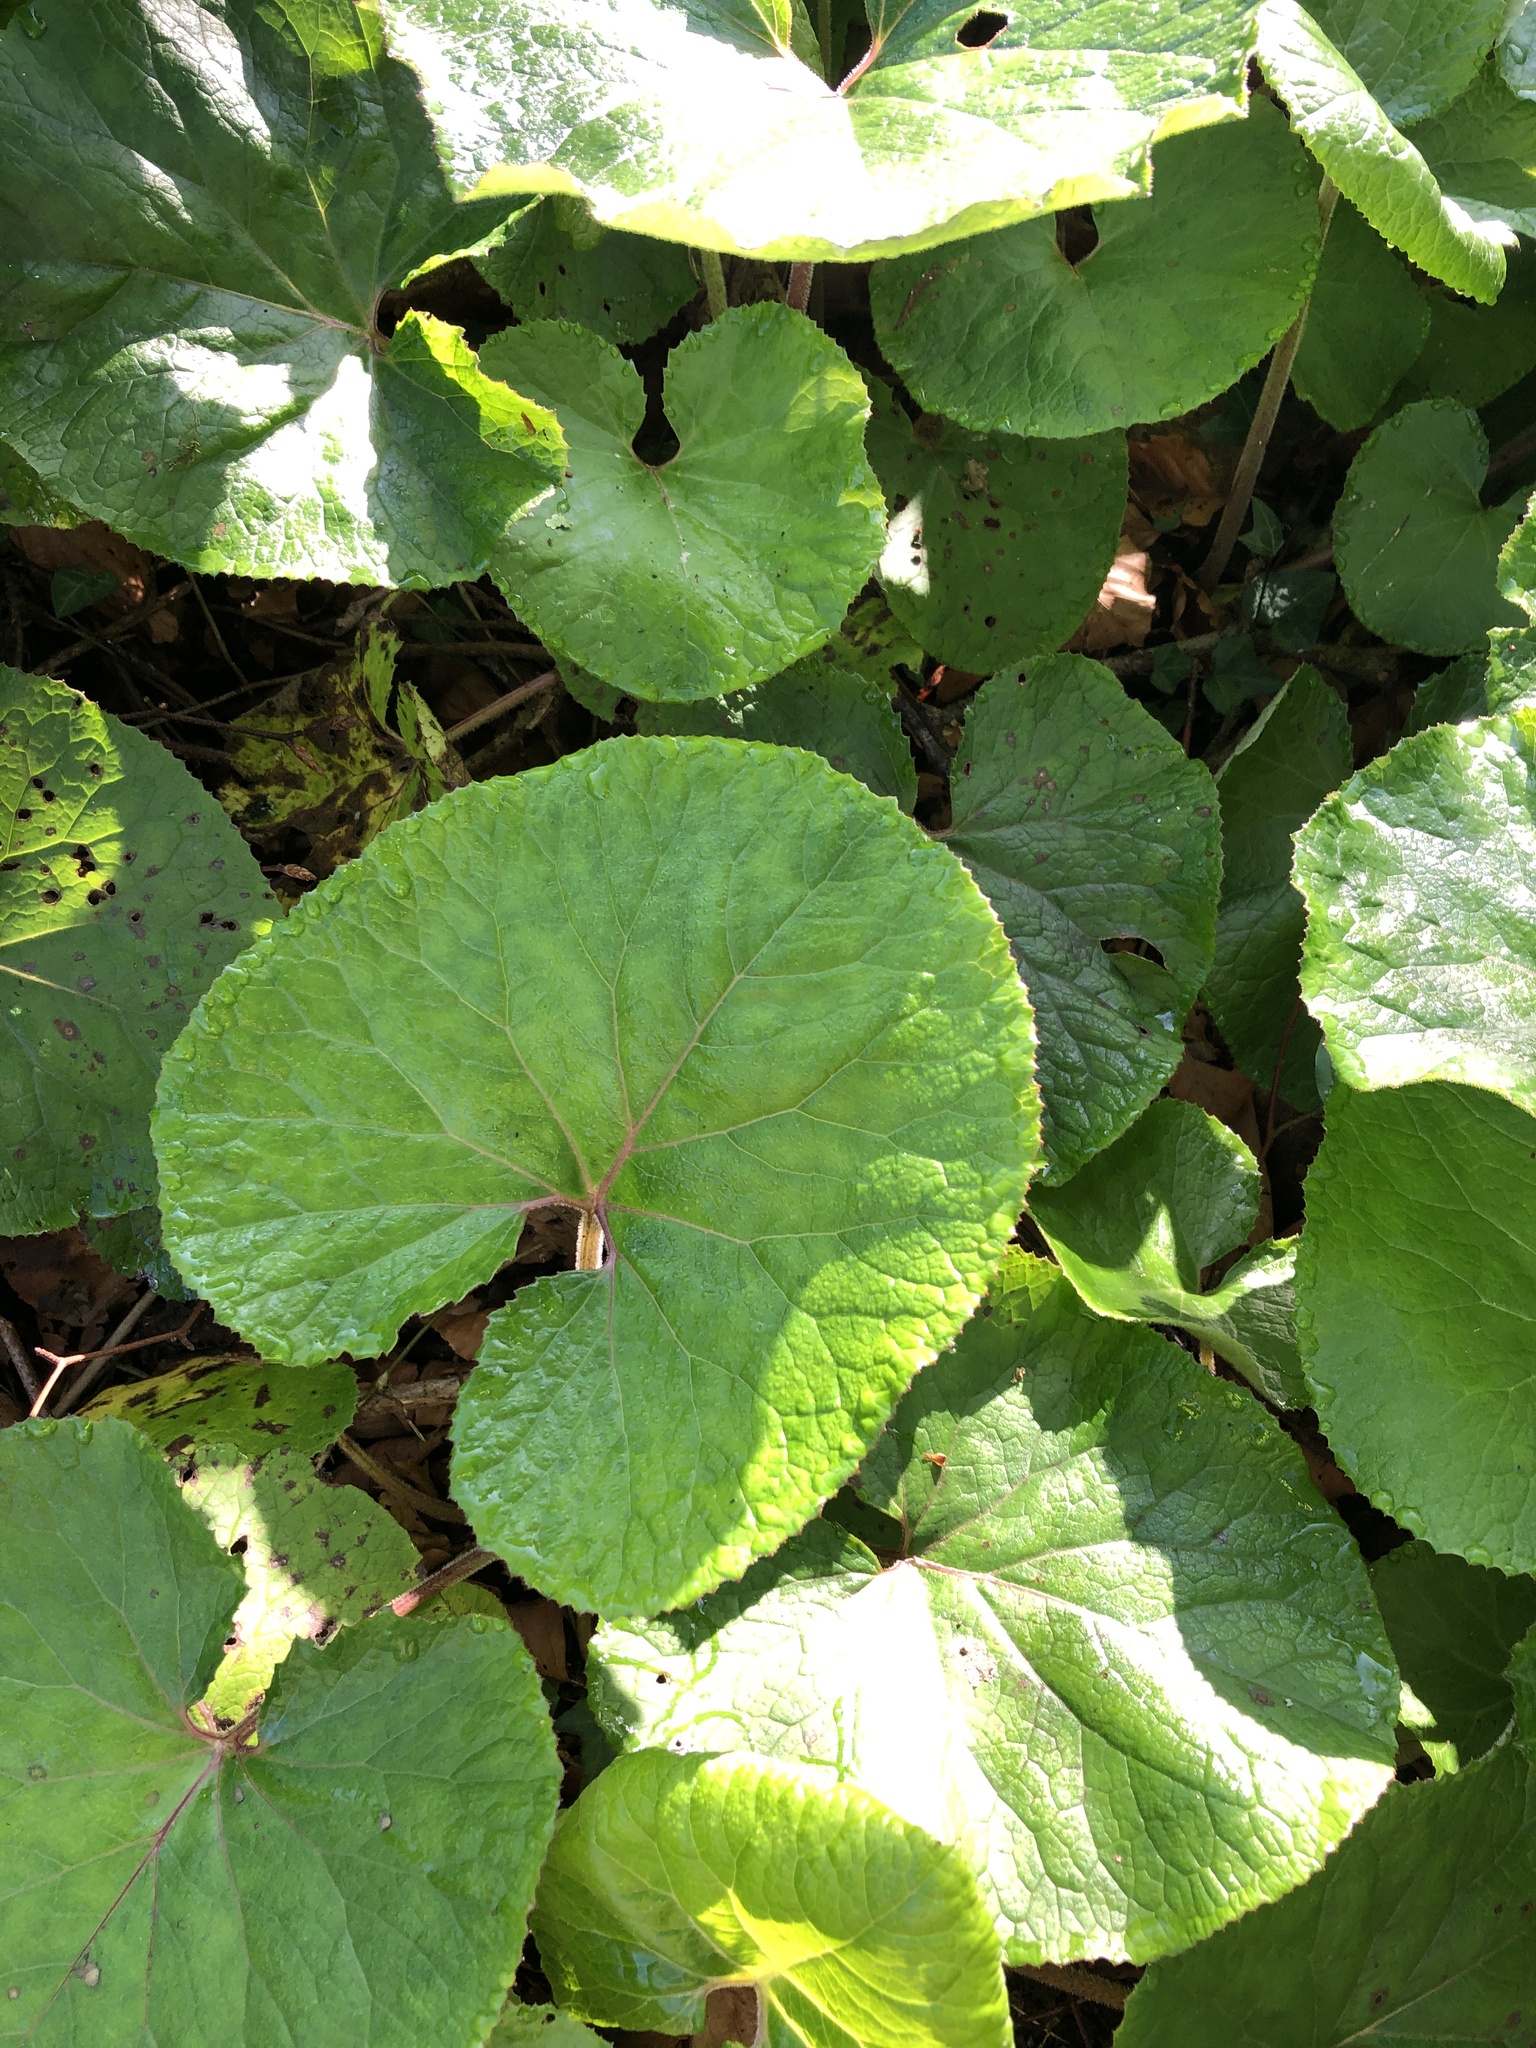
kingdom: Plantae
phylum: Tracheophyta
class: Magnoliopsida
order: Asterales
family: Asteraceae
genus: Petasites
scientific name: Petasites pyrenaicus
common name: Winter heliotrope
